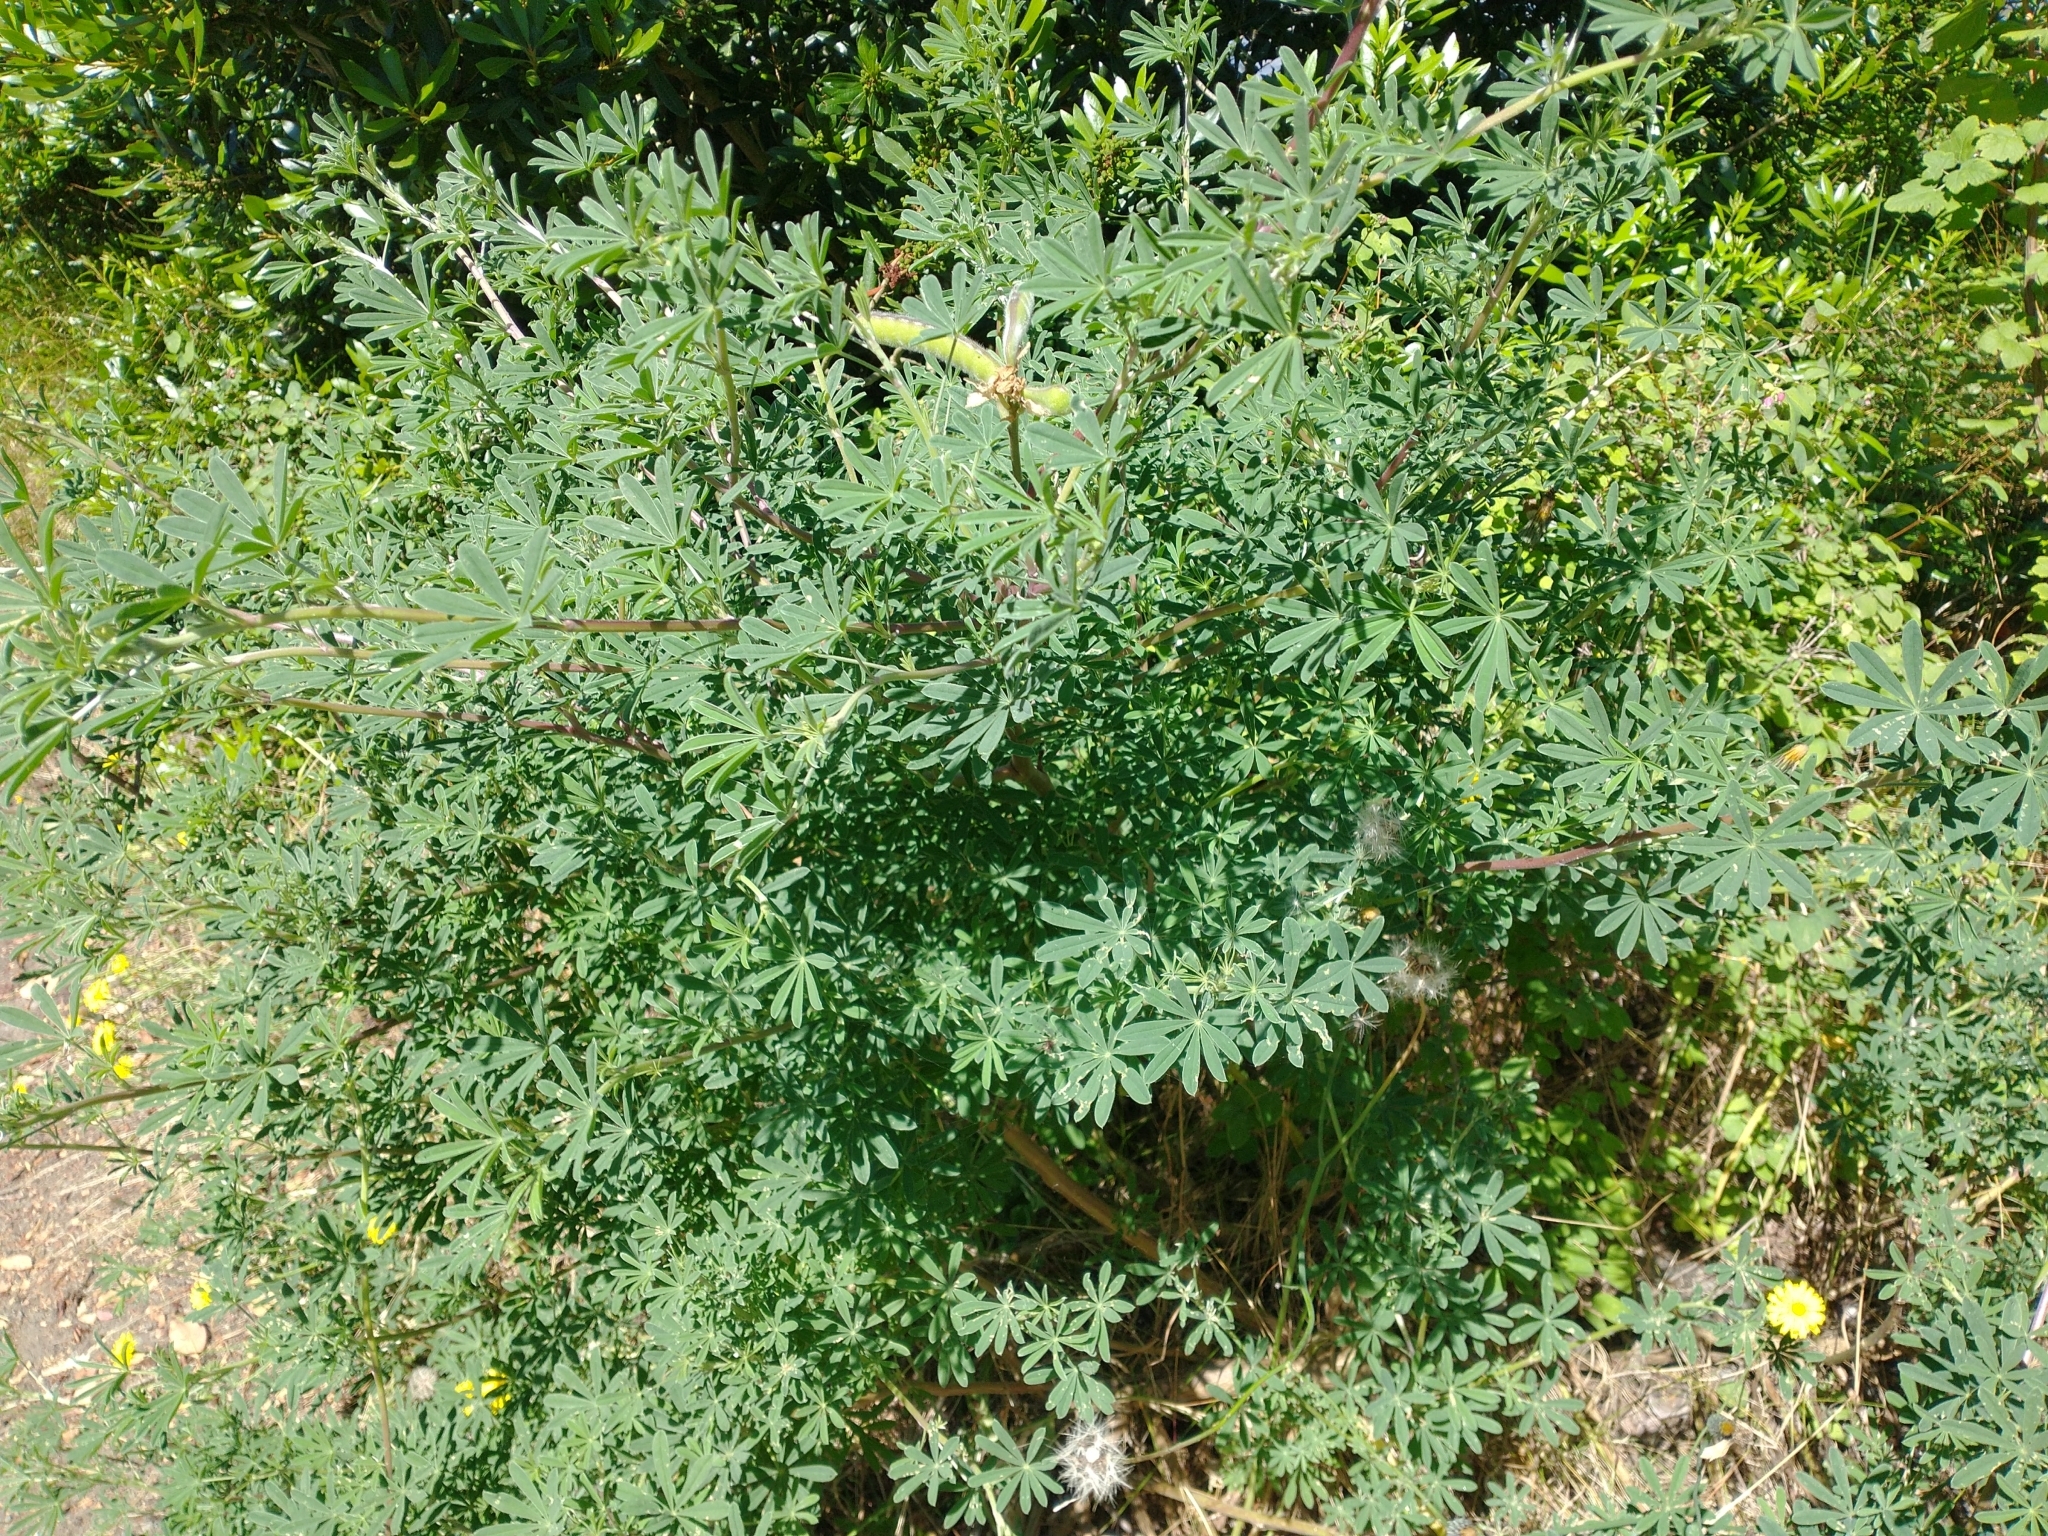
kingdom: Plantae
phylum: Tracheophyta
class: Magnoliopsida
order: Fabales
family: Fabaceae
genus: Lupinus
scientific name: Lupinus arboreus
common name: Yellow bush lupine
